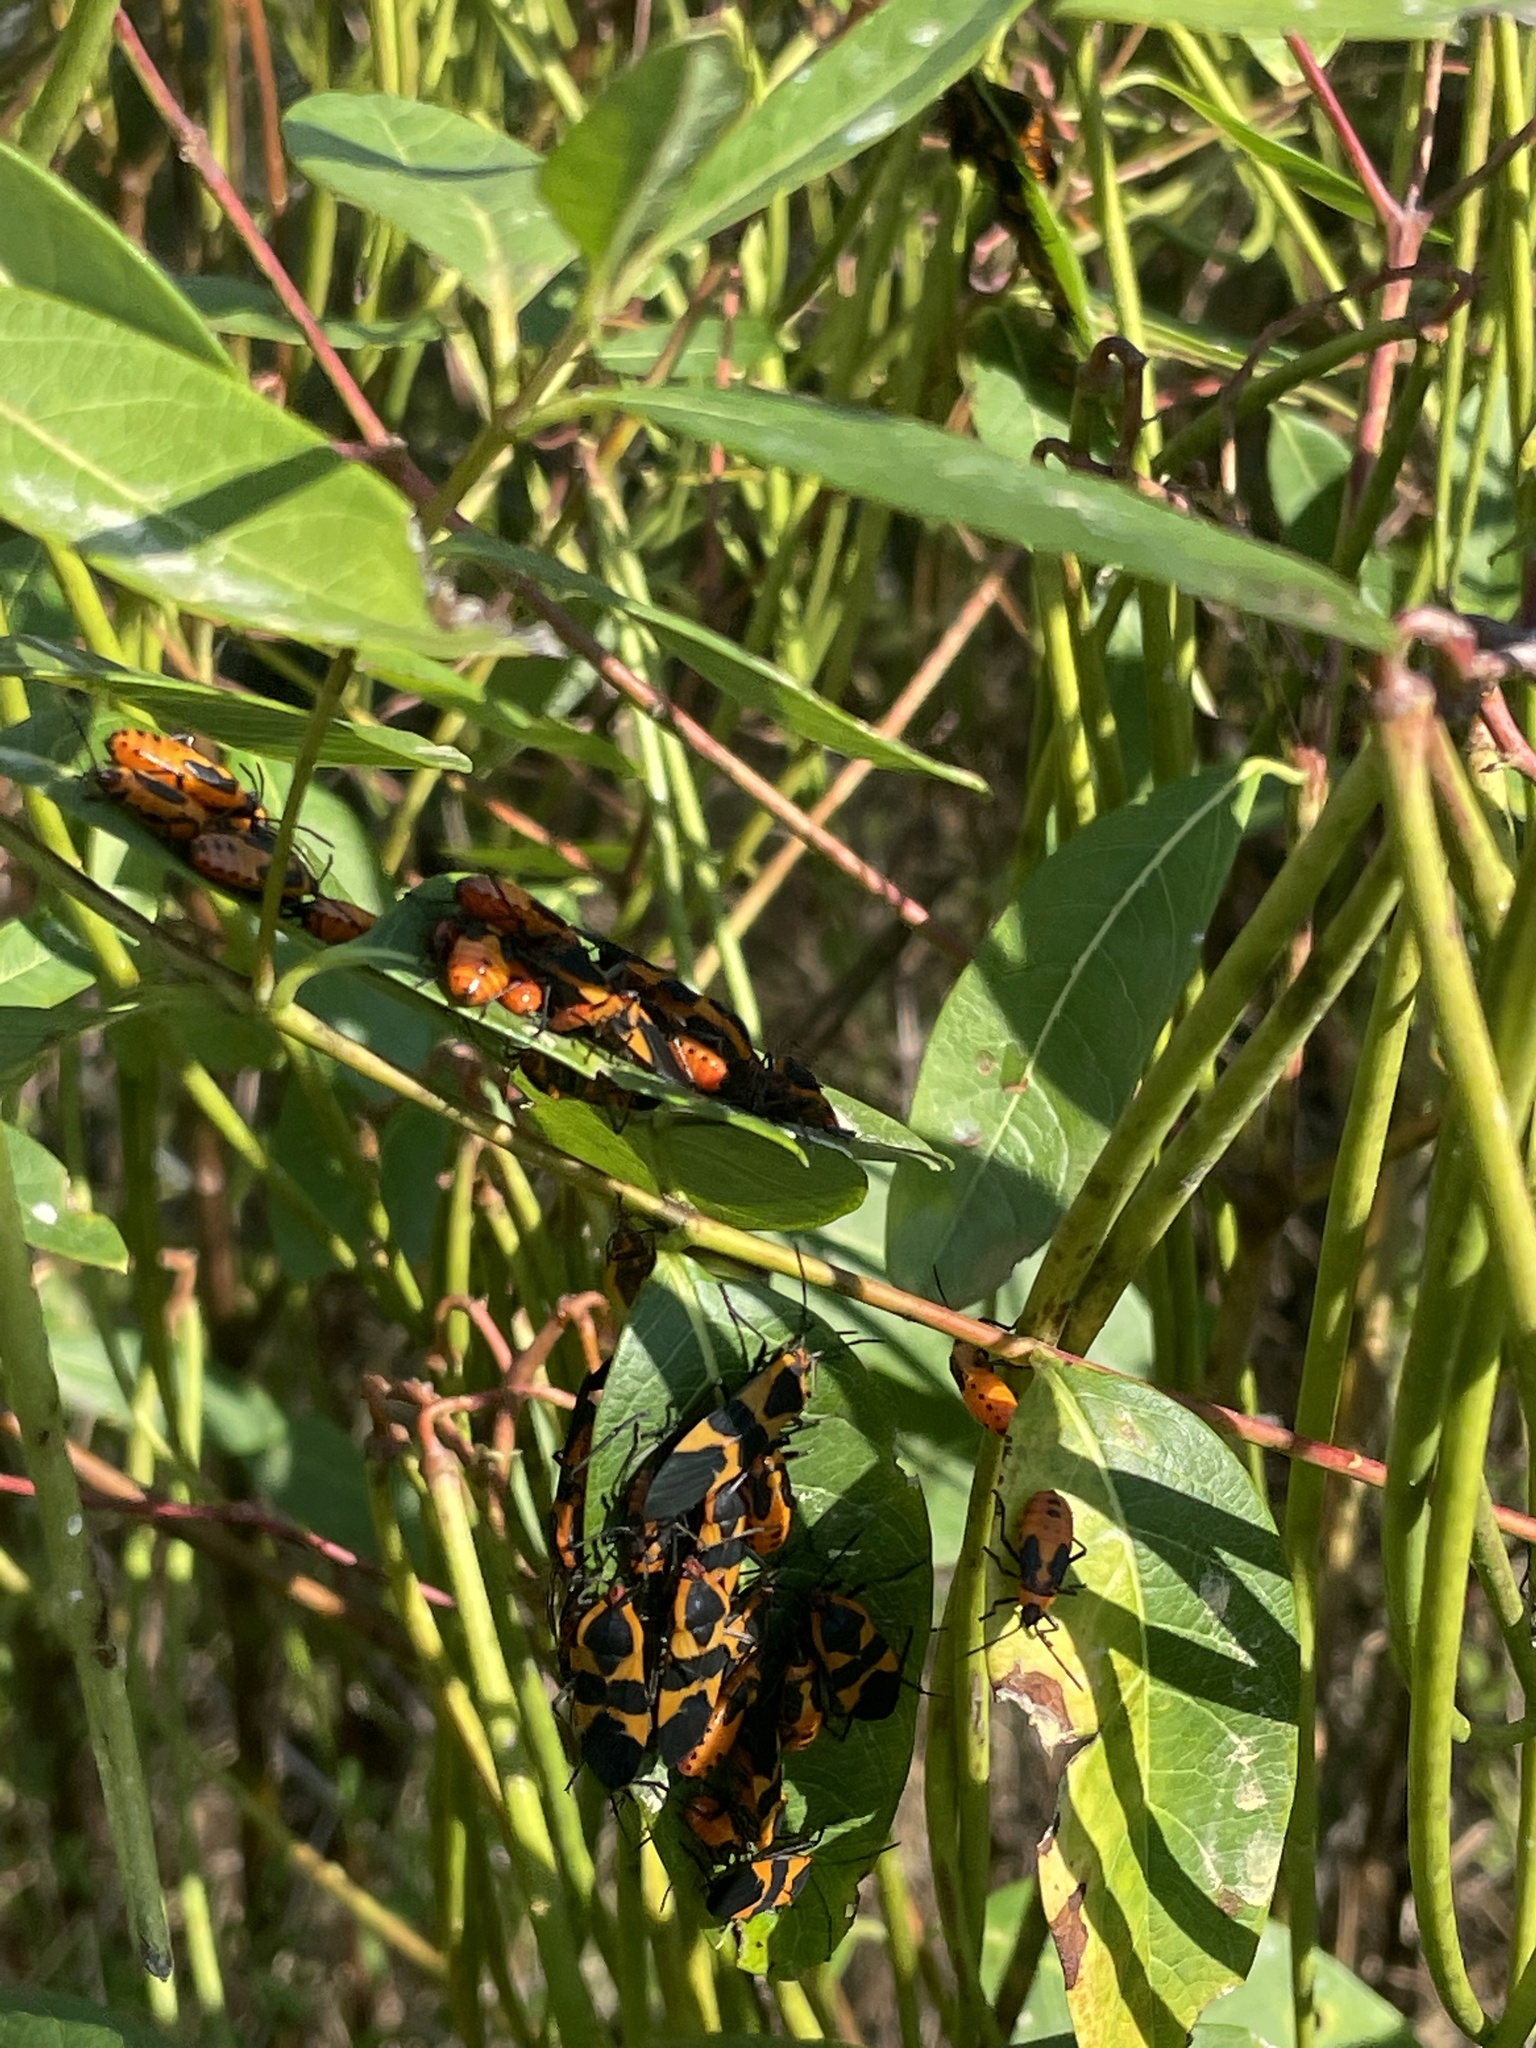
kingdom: Animalia
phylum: Arthropoda
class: Insecta
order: Hemiptera
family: Lygaeidae
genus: Oncopeltus
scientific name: Oncopeltus fasciatus
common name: Large milkweed bug
